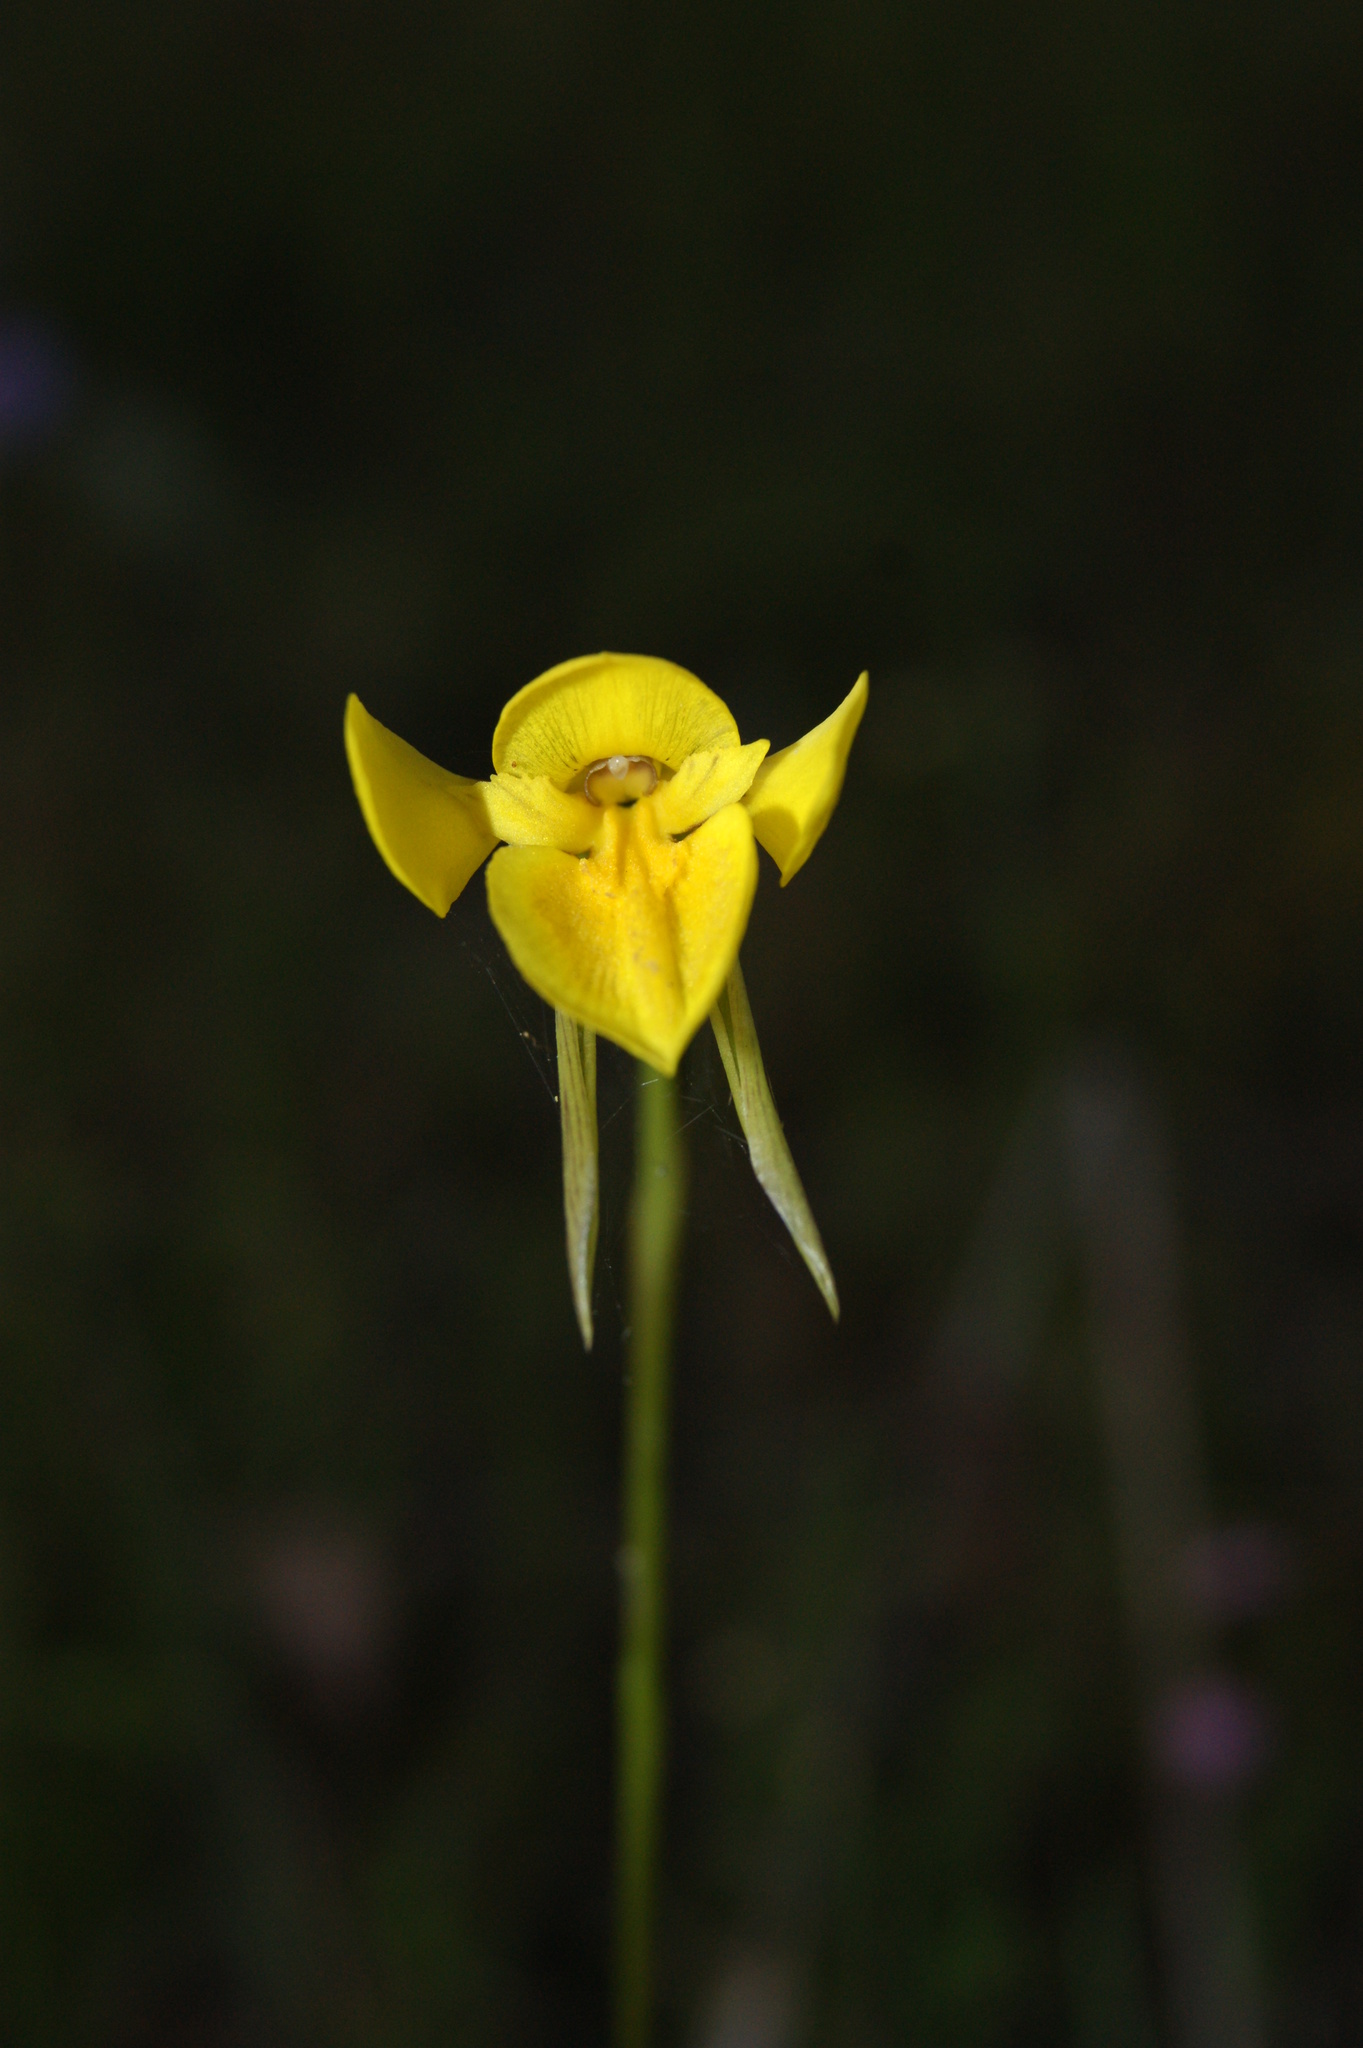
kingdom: Plantae
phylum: Tracheophyta
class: Liliopsida
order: Asparagales
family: Orchidaceae
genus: Diuris
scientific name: Diuris chryseopsis
